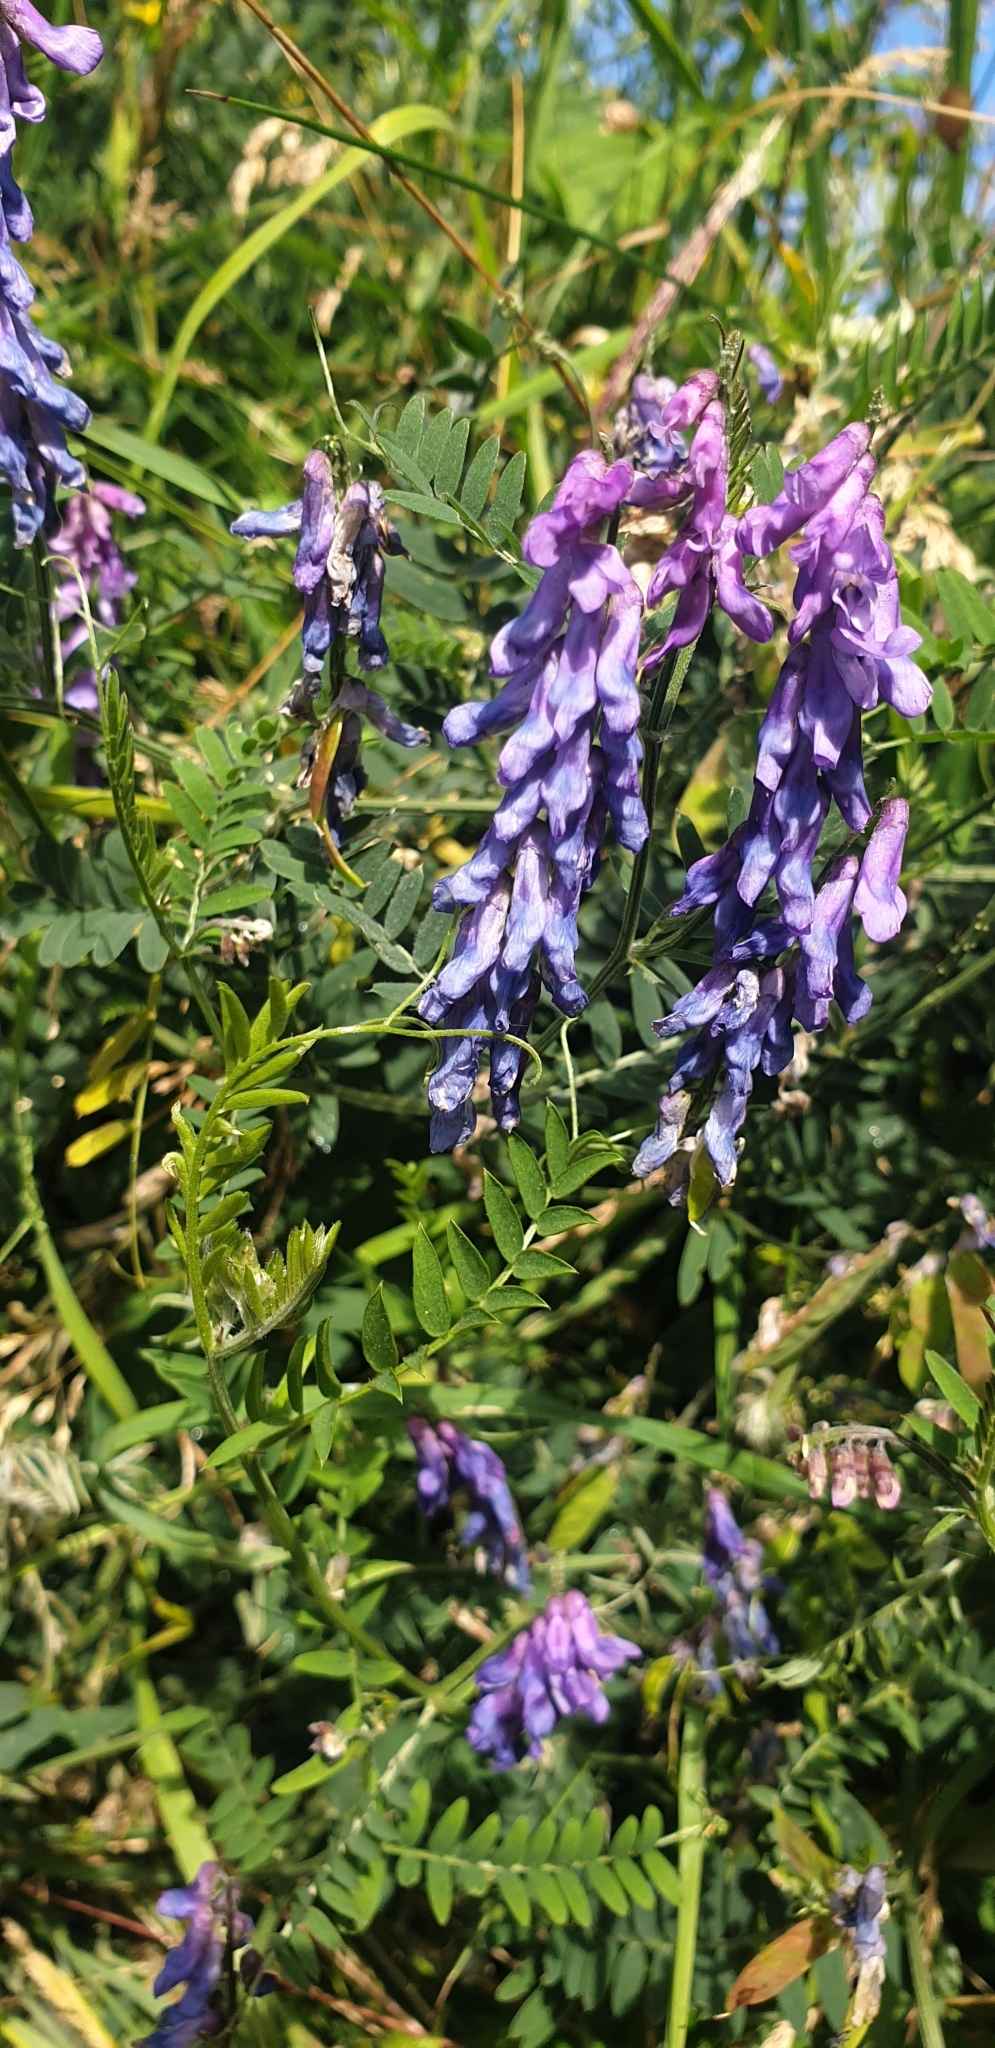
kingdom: Plantae
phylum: Tracheophyta
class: Magnoliopsida
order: Fabales
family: Fabaceae
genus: Vicia
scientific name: Vicia cracca
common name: Bird vetch
